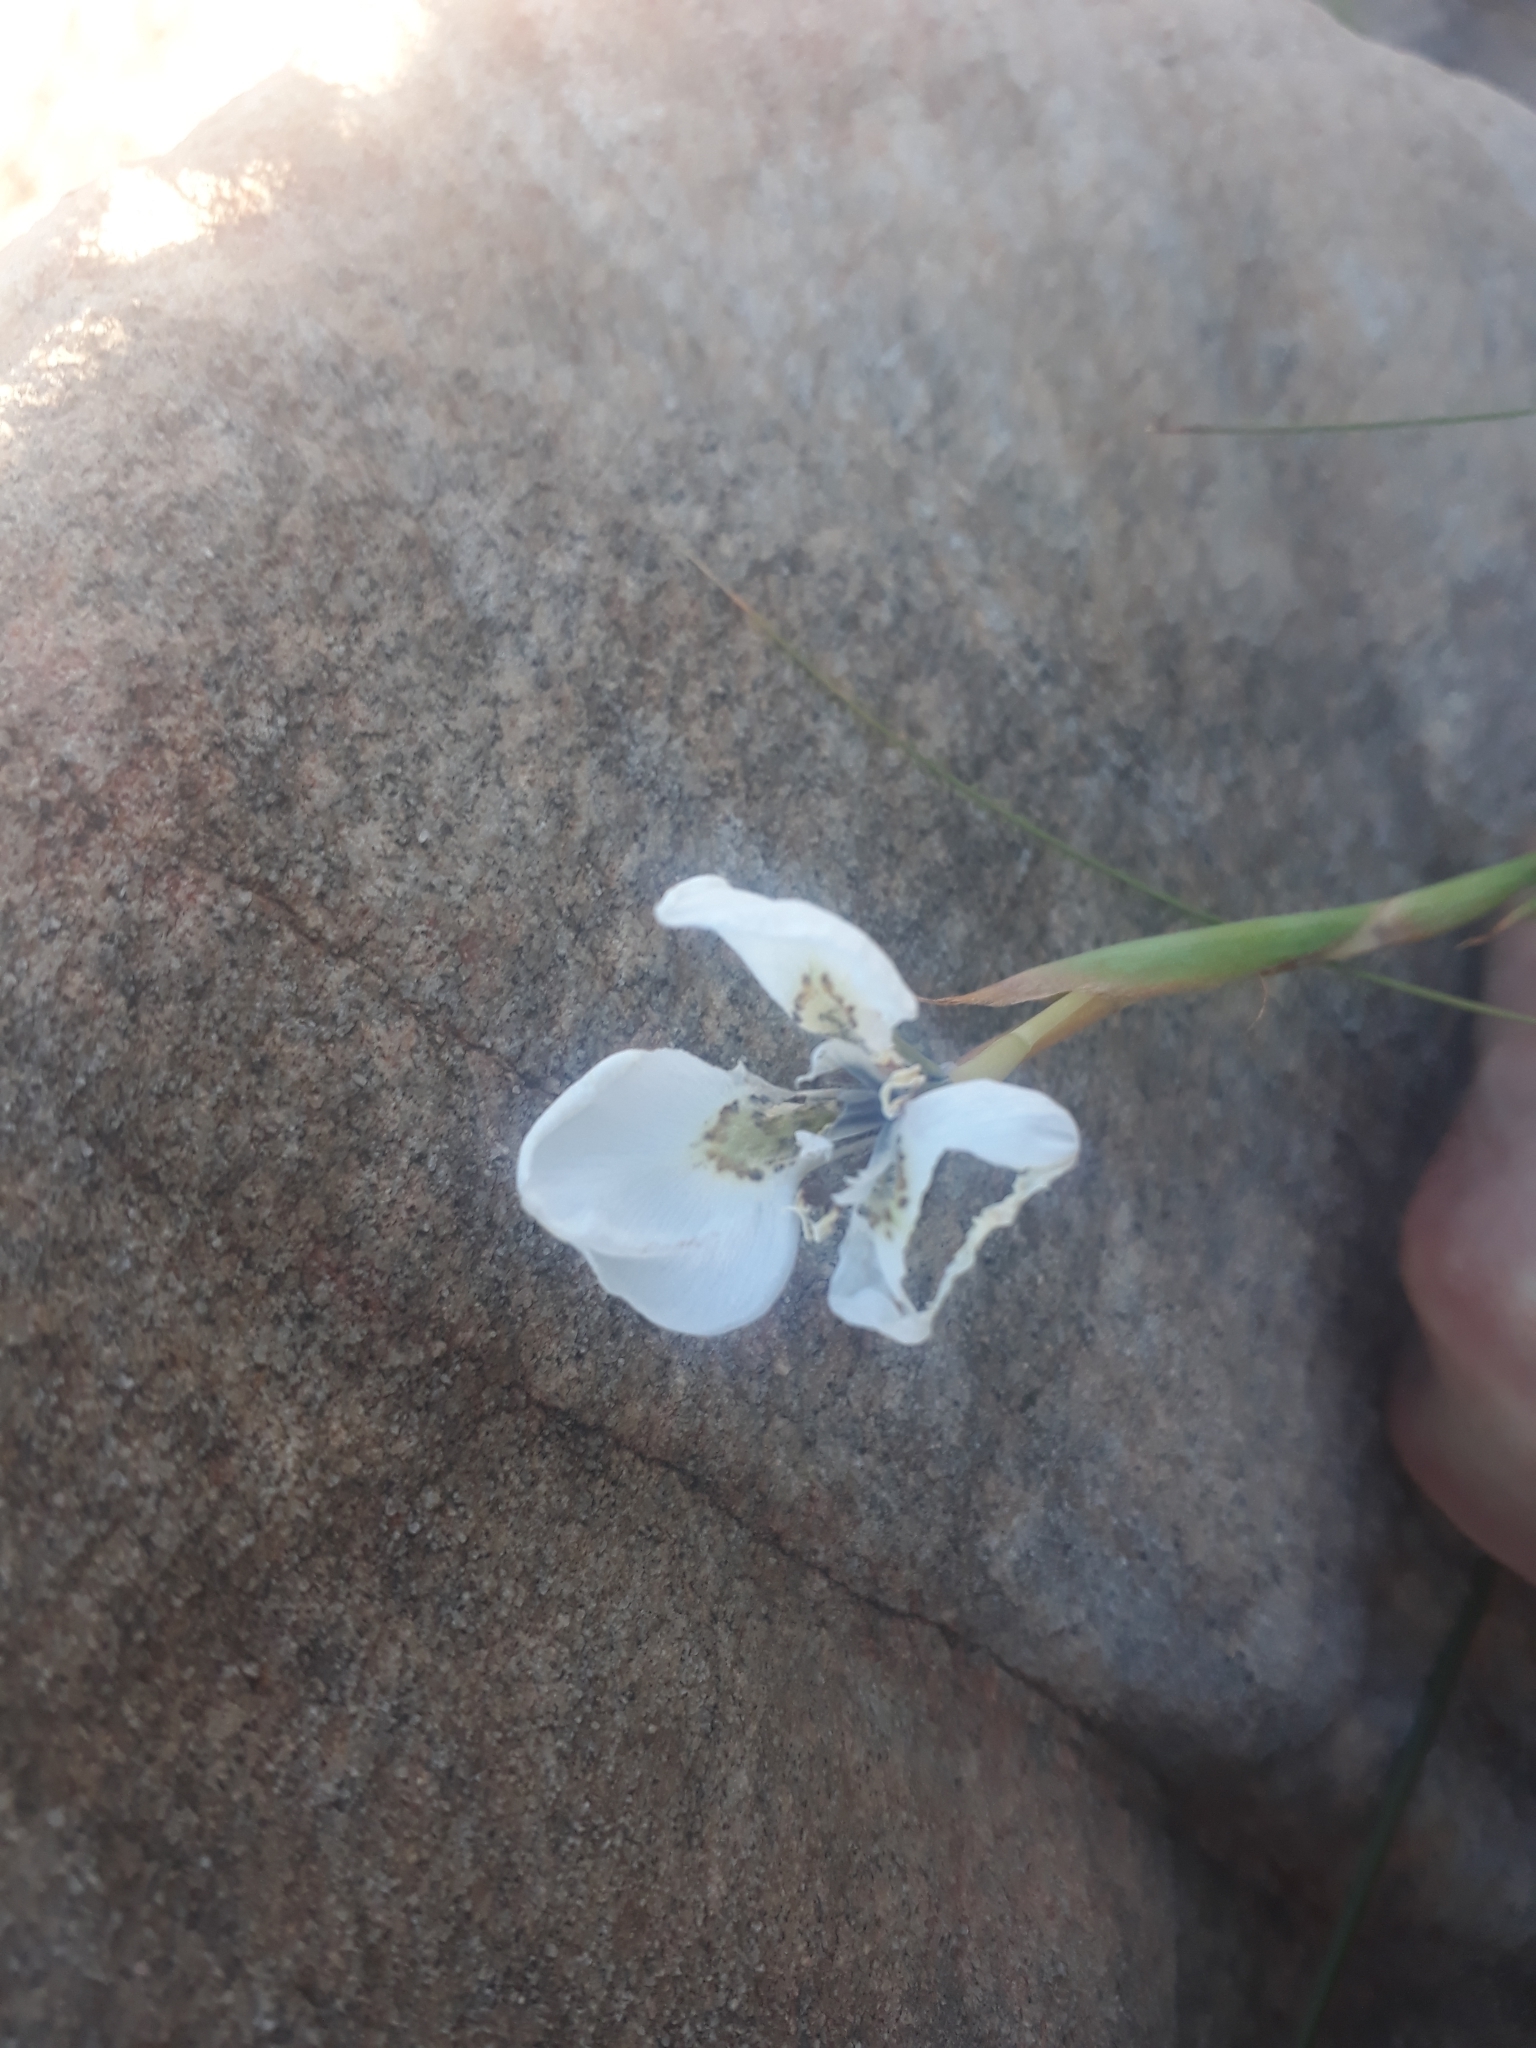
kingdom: Plantae
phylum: Tracheophyta
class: Liliopsida
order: Asparagales
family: Iridaceae
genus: Moraea
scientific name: Moraea tricuspidata
